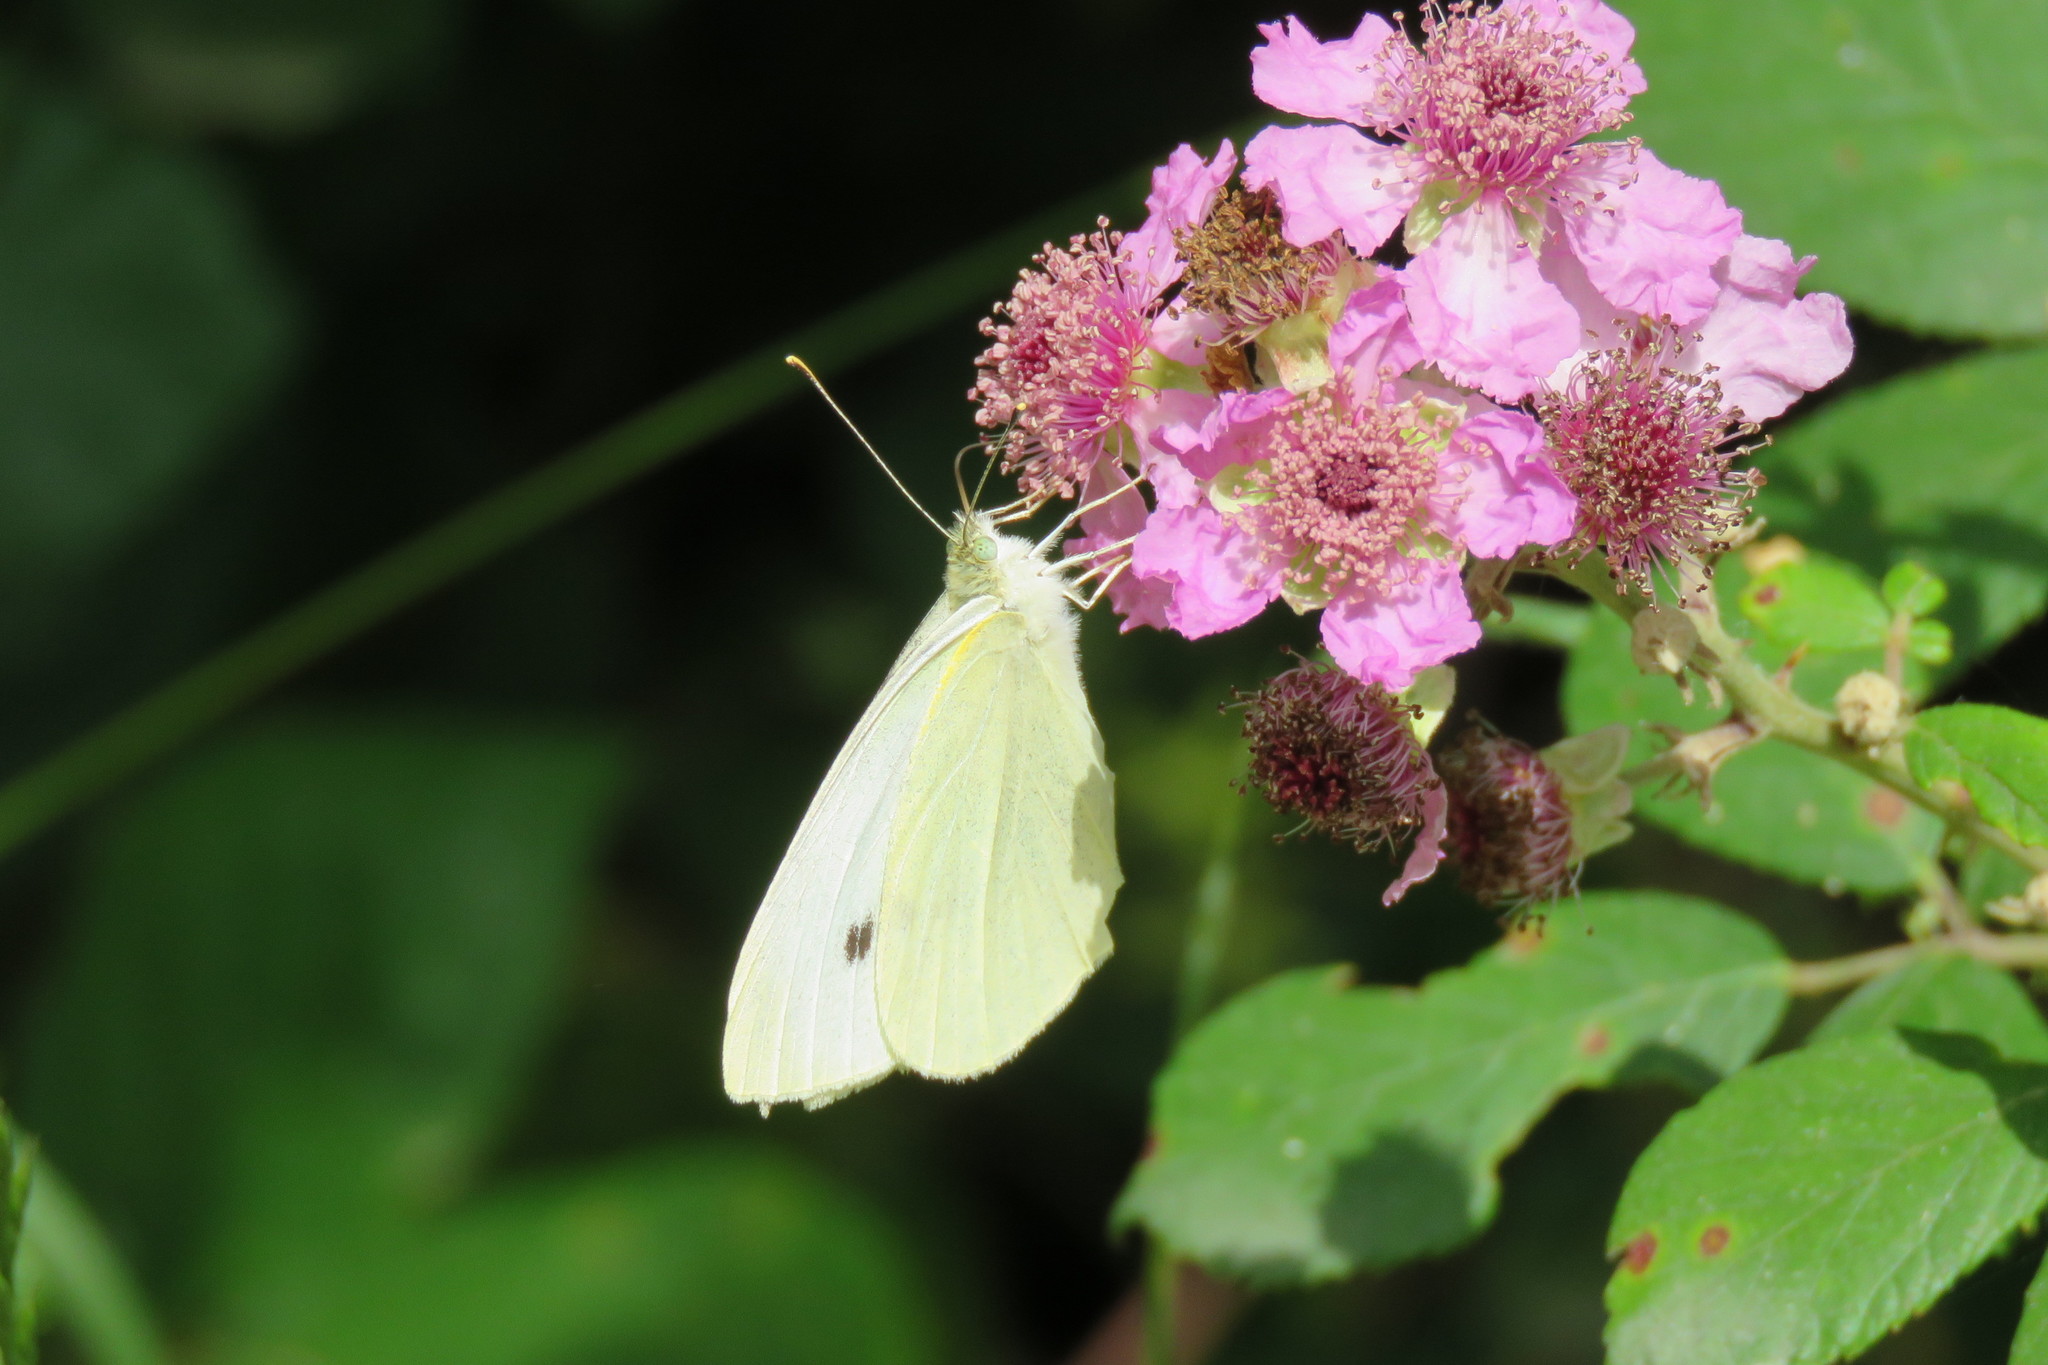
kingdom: Animalia
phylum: Arthropoda
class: Insecta
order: Lepidoptera
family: Pieridae
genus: Pieris
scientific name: Pieris rapae
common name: Small white
